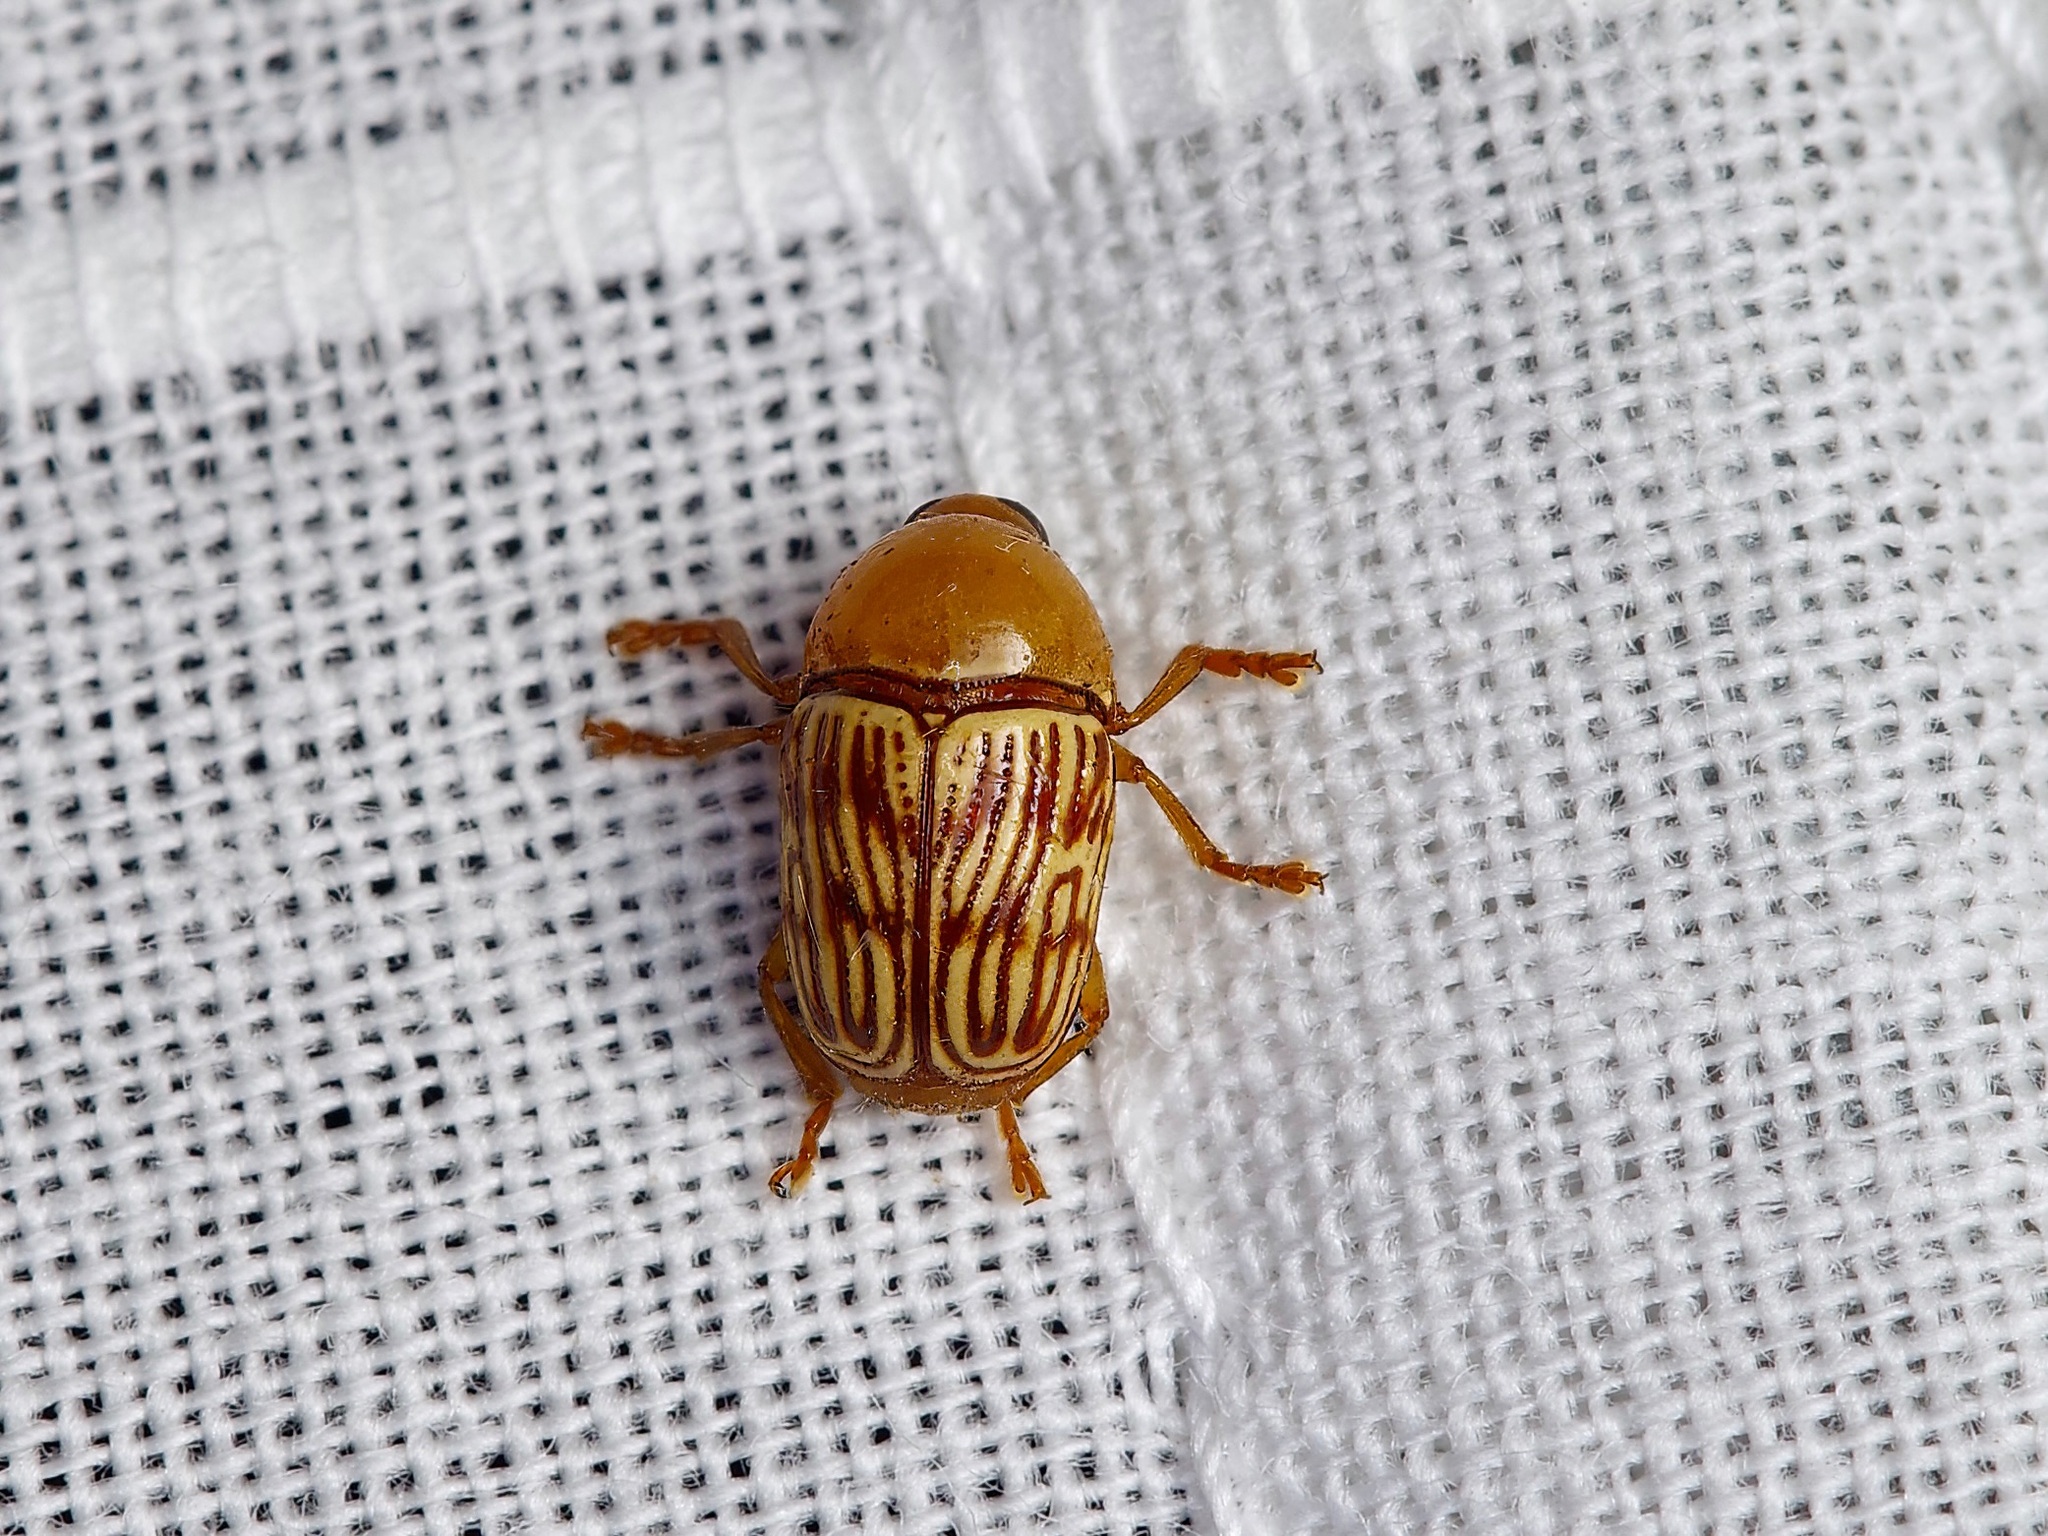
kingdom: Animalia
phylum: Arthropoda
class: Insecta
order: Coleoptera
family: Chrysomelidae
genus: Cryptocephalus
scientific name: Cryptocephalus fulguratus
